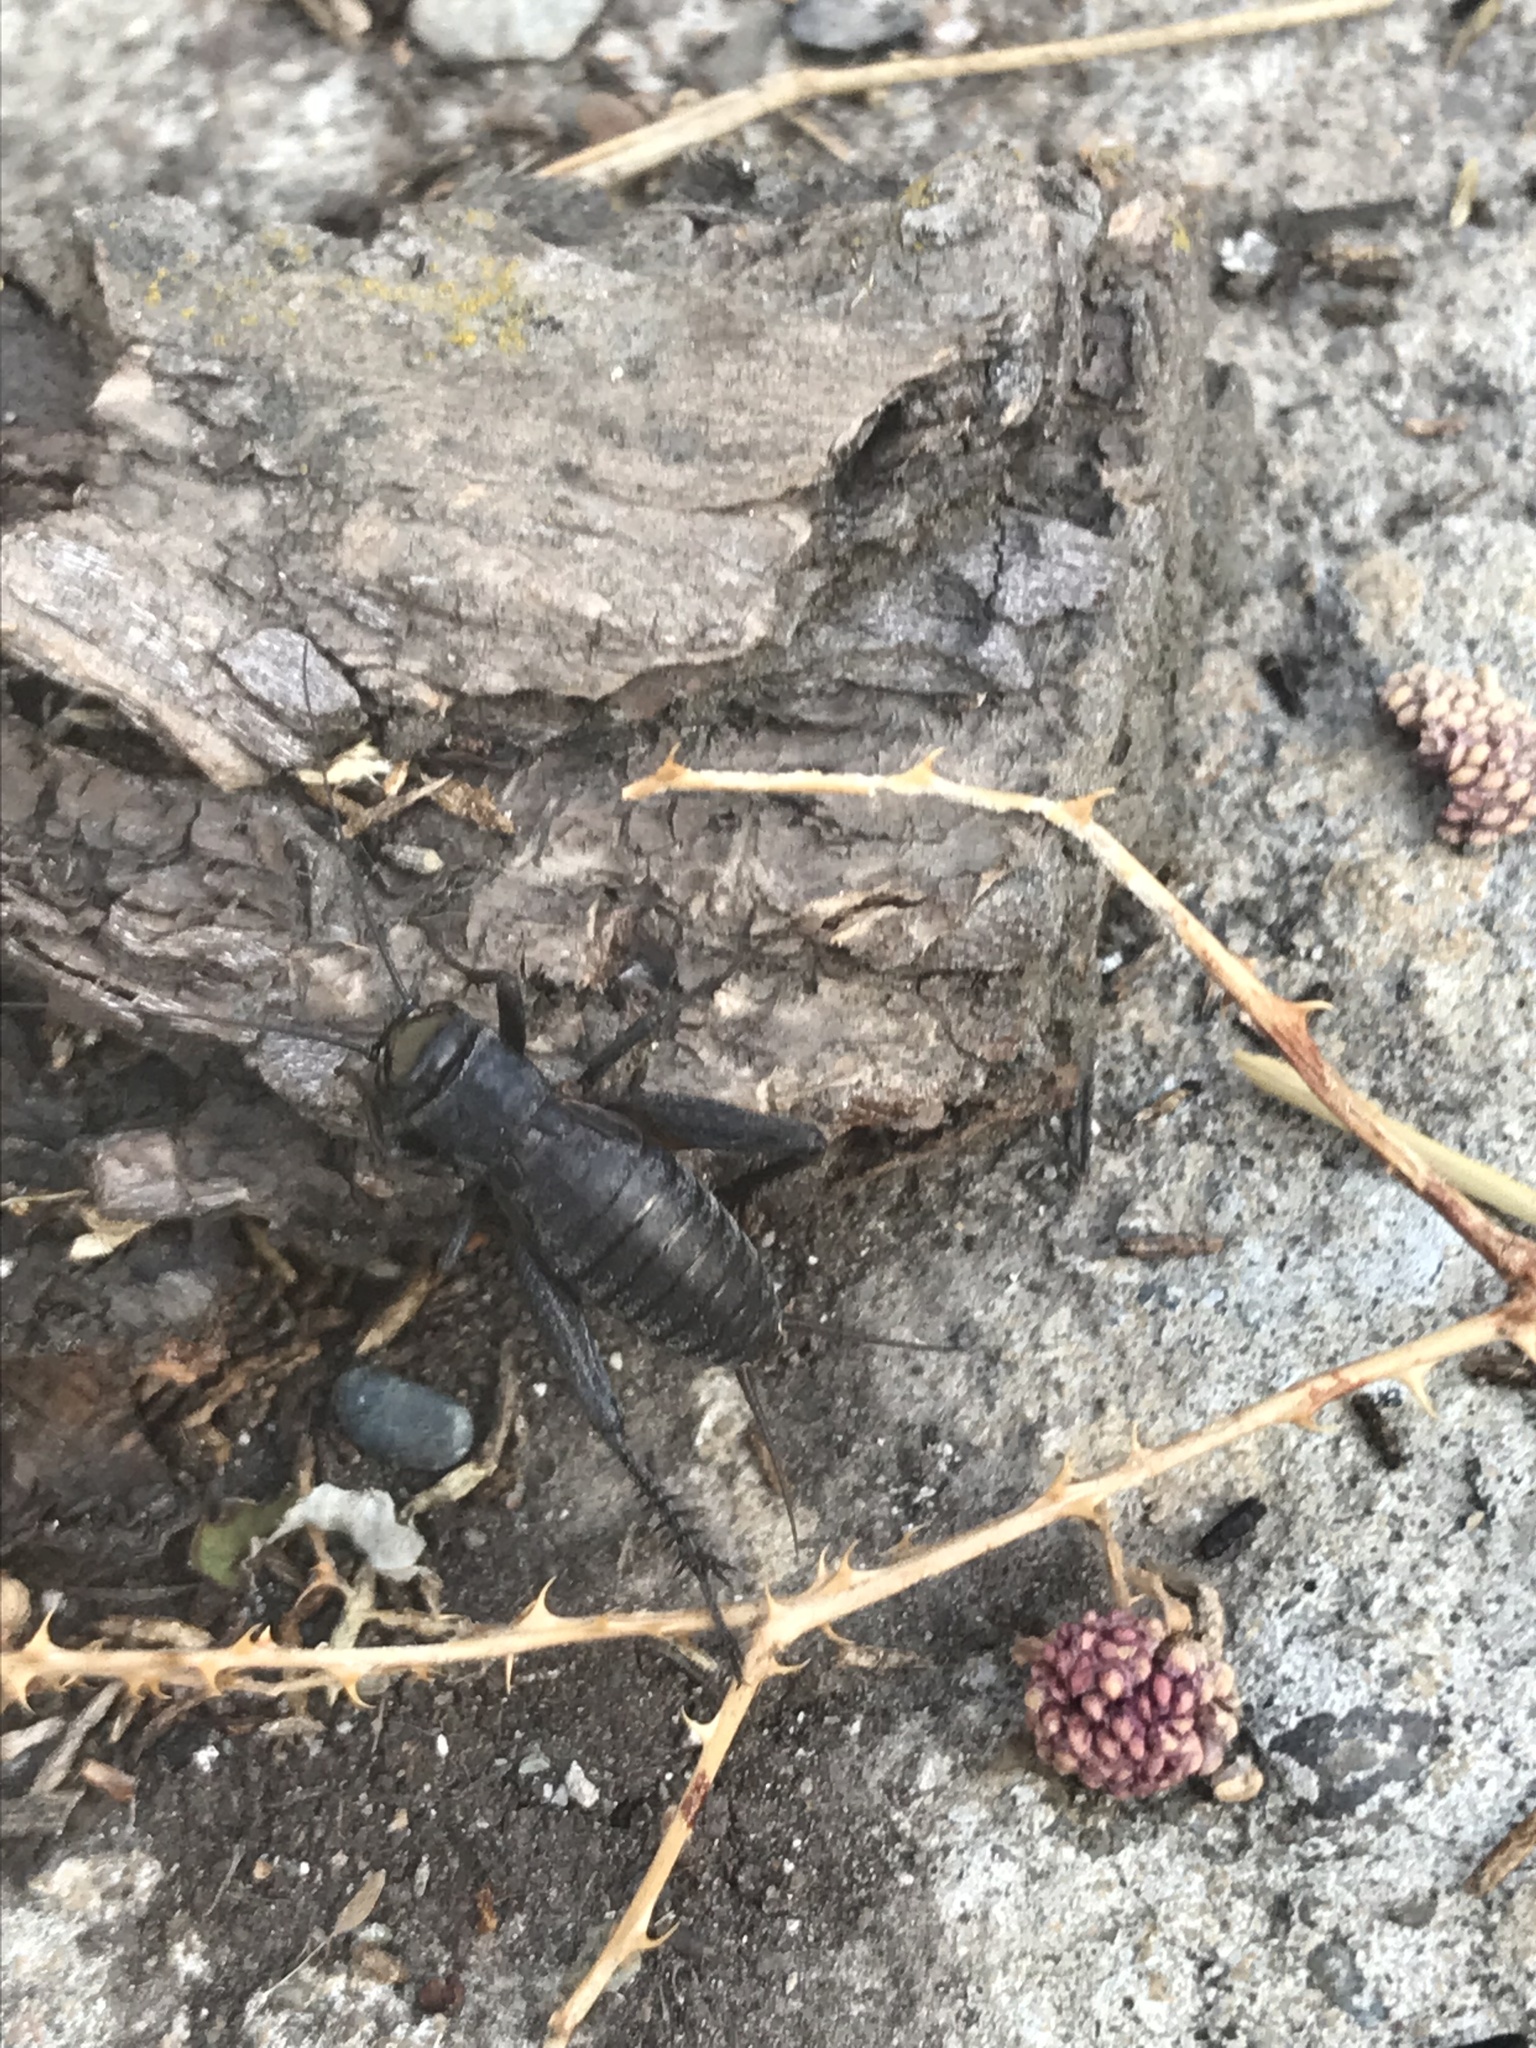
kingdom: Animalia
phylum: Arthropoda
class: Insecta
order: Orthoptera
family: Gryllidae
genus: Gryllus
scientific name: Gryllus pennsylvanicus
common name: Fall field cricket
